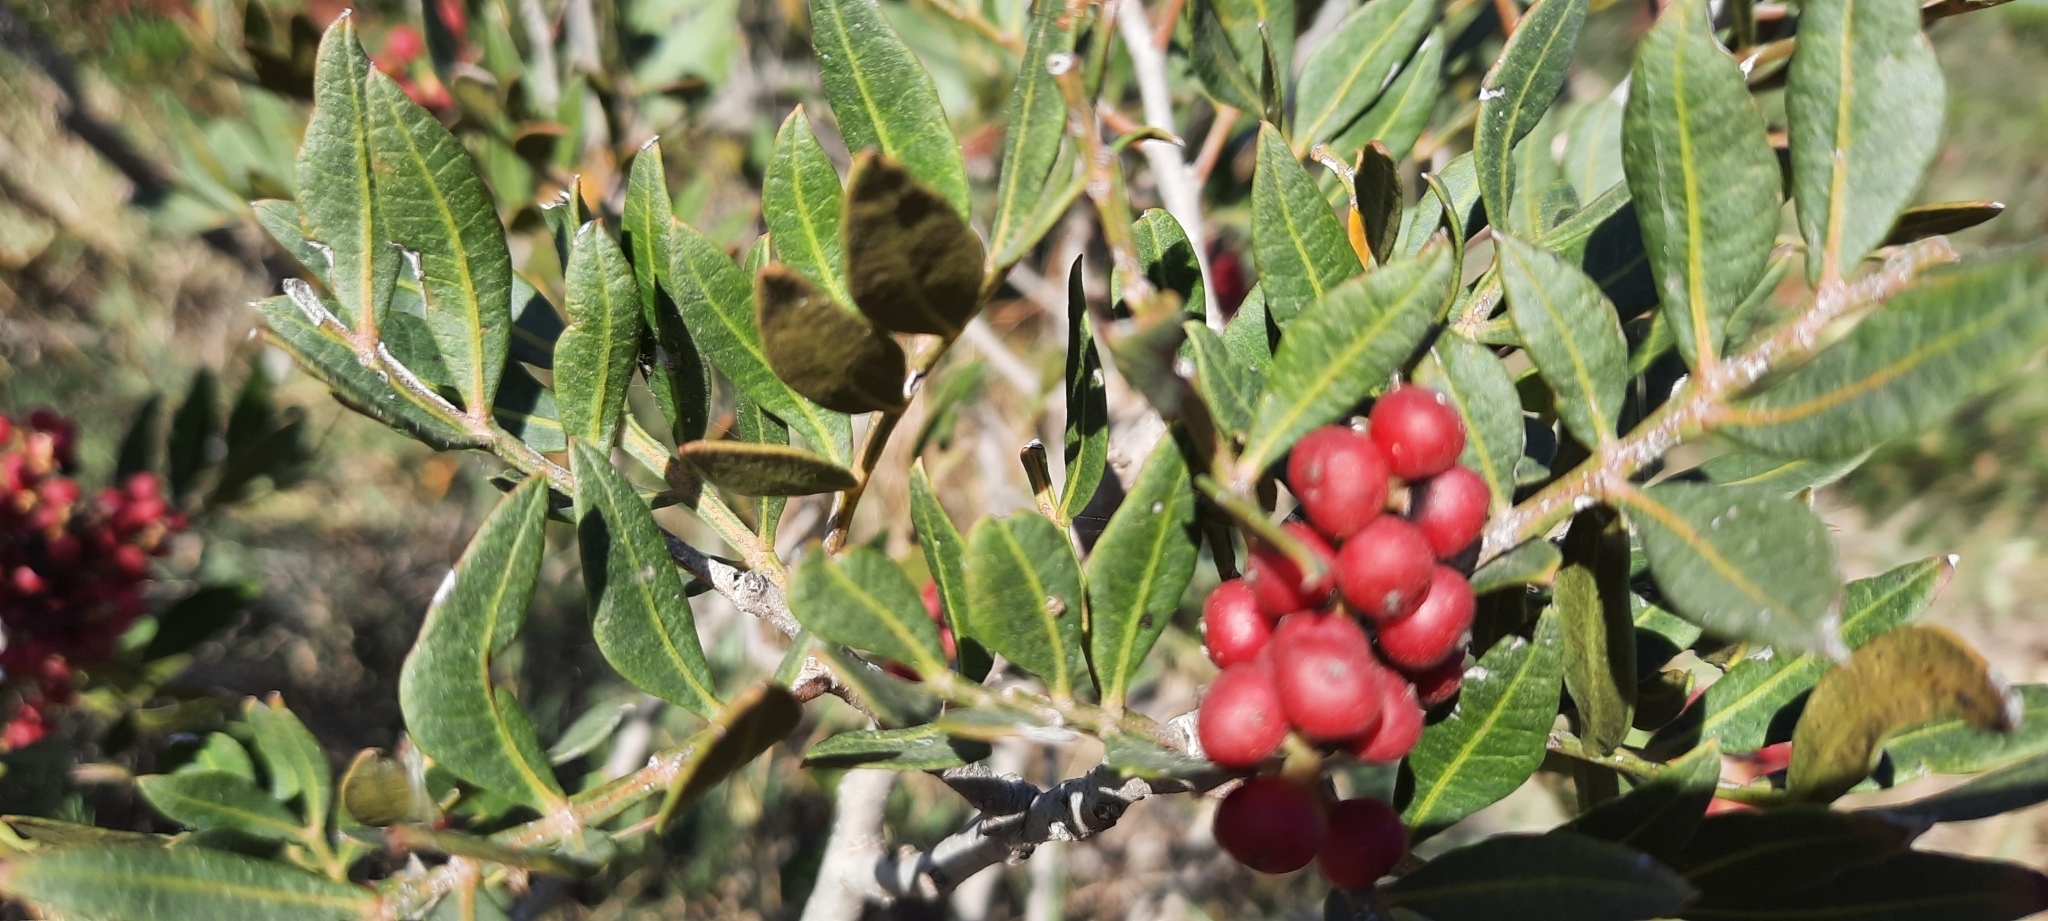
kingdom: Plantae
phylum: Tracheophyta
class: Magnoliopsida
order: Sapindales
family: Anacardiaceae
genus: Pistacia
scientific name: Pistacia lentiscus
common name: Lentisk
